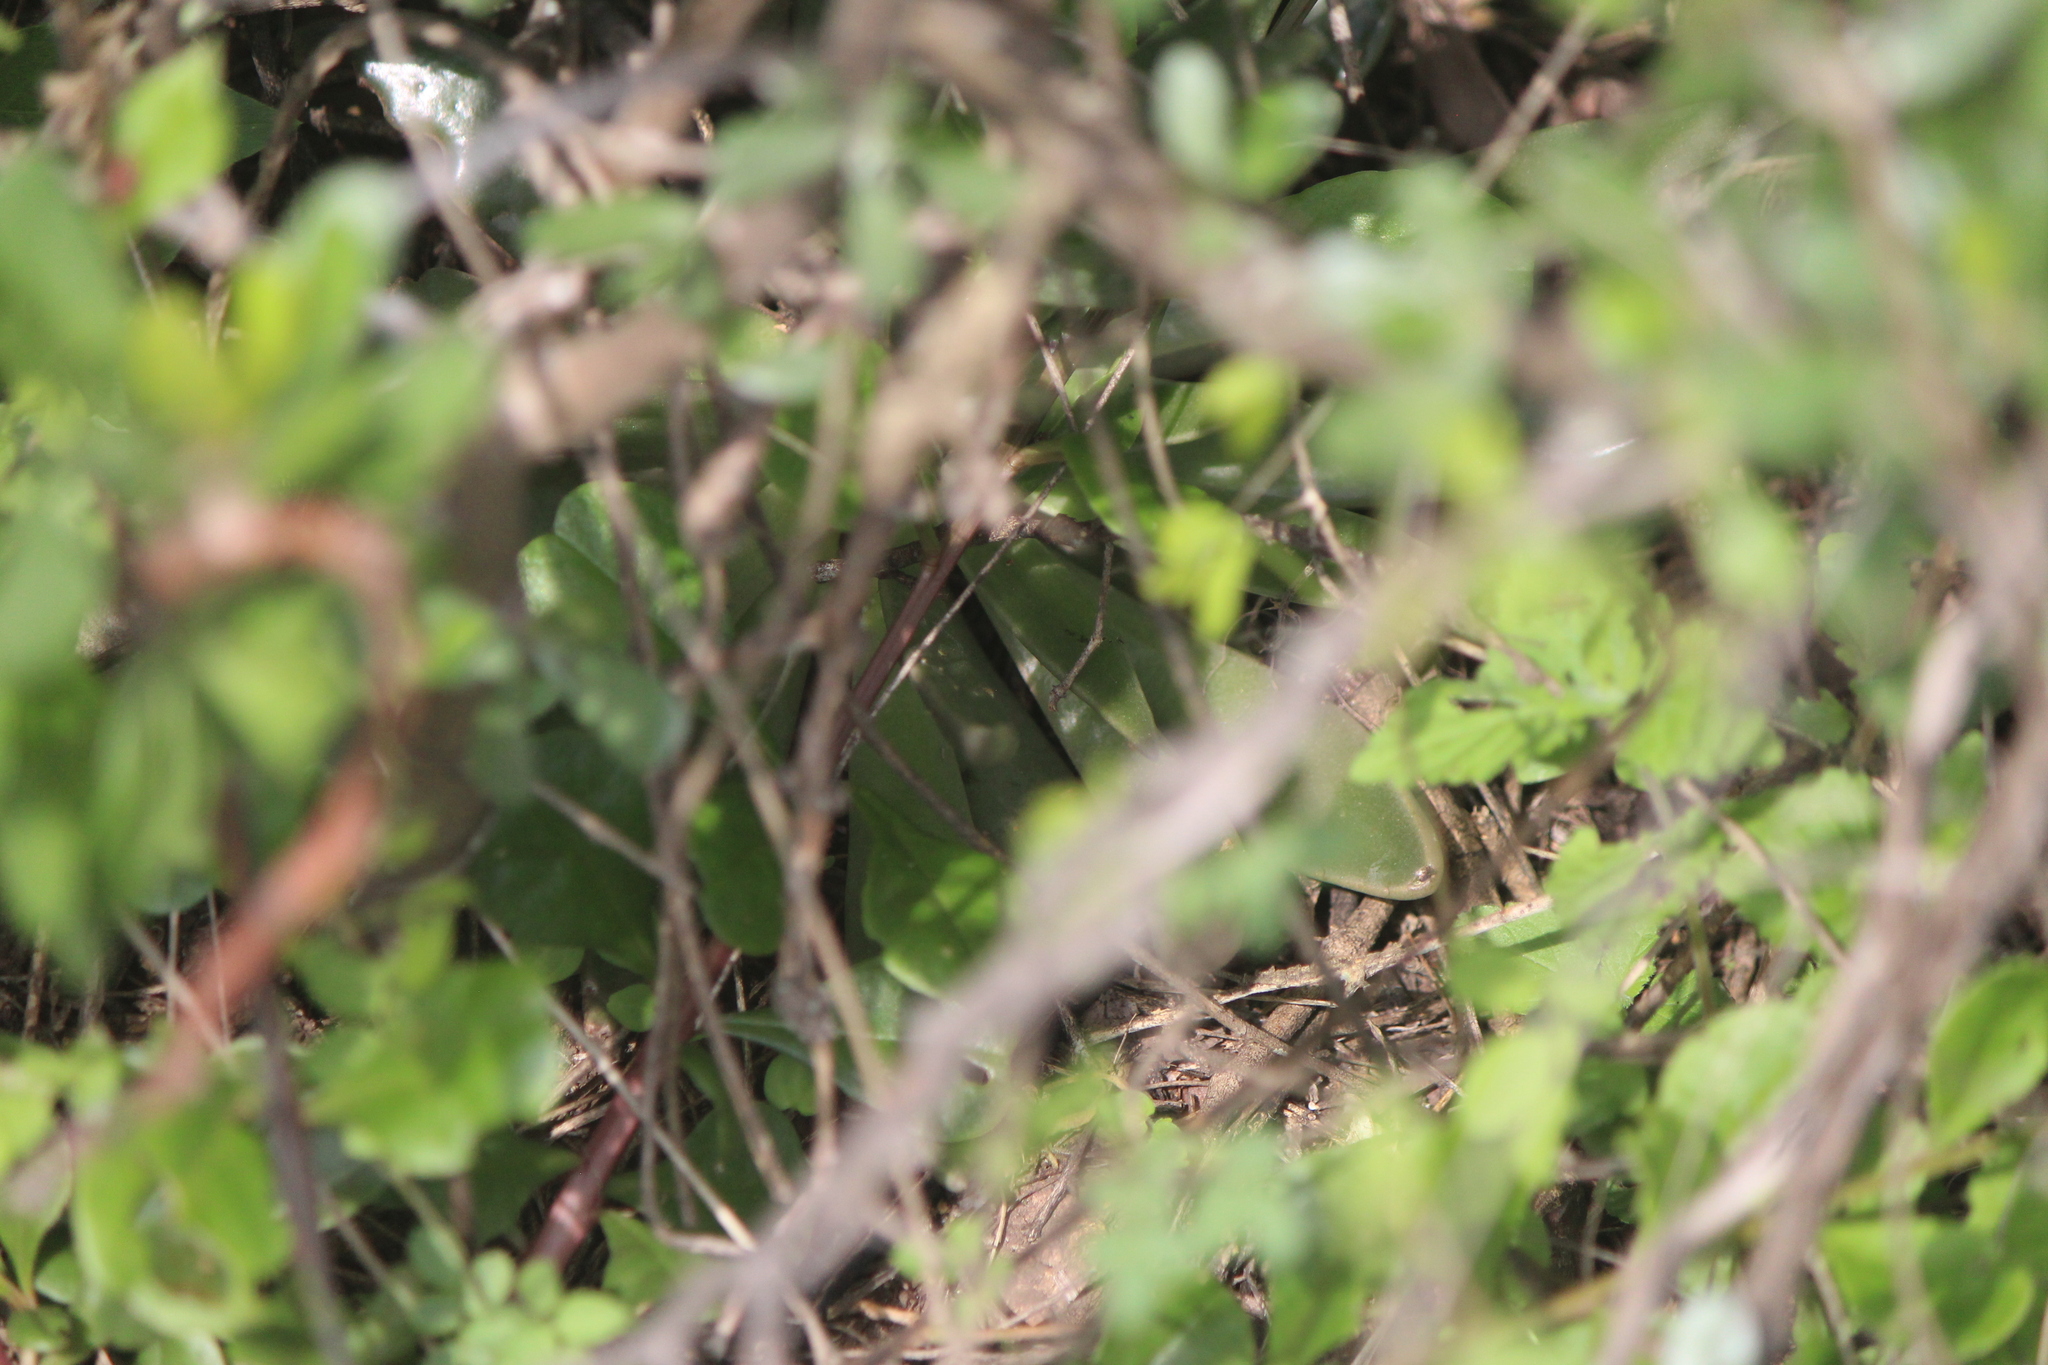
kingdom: Plantae
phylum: Tracheophyta
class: Magnoliopsida
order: Saxifragales
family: Crassulaceae
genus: Echeveria
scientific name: Echeveria bifida
